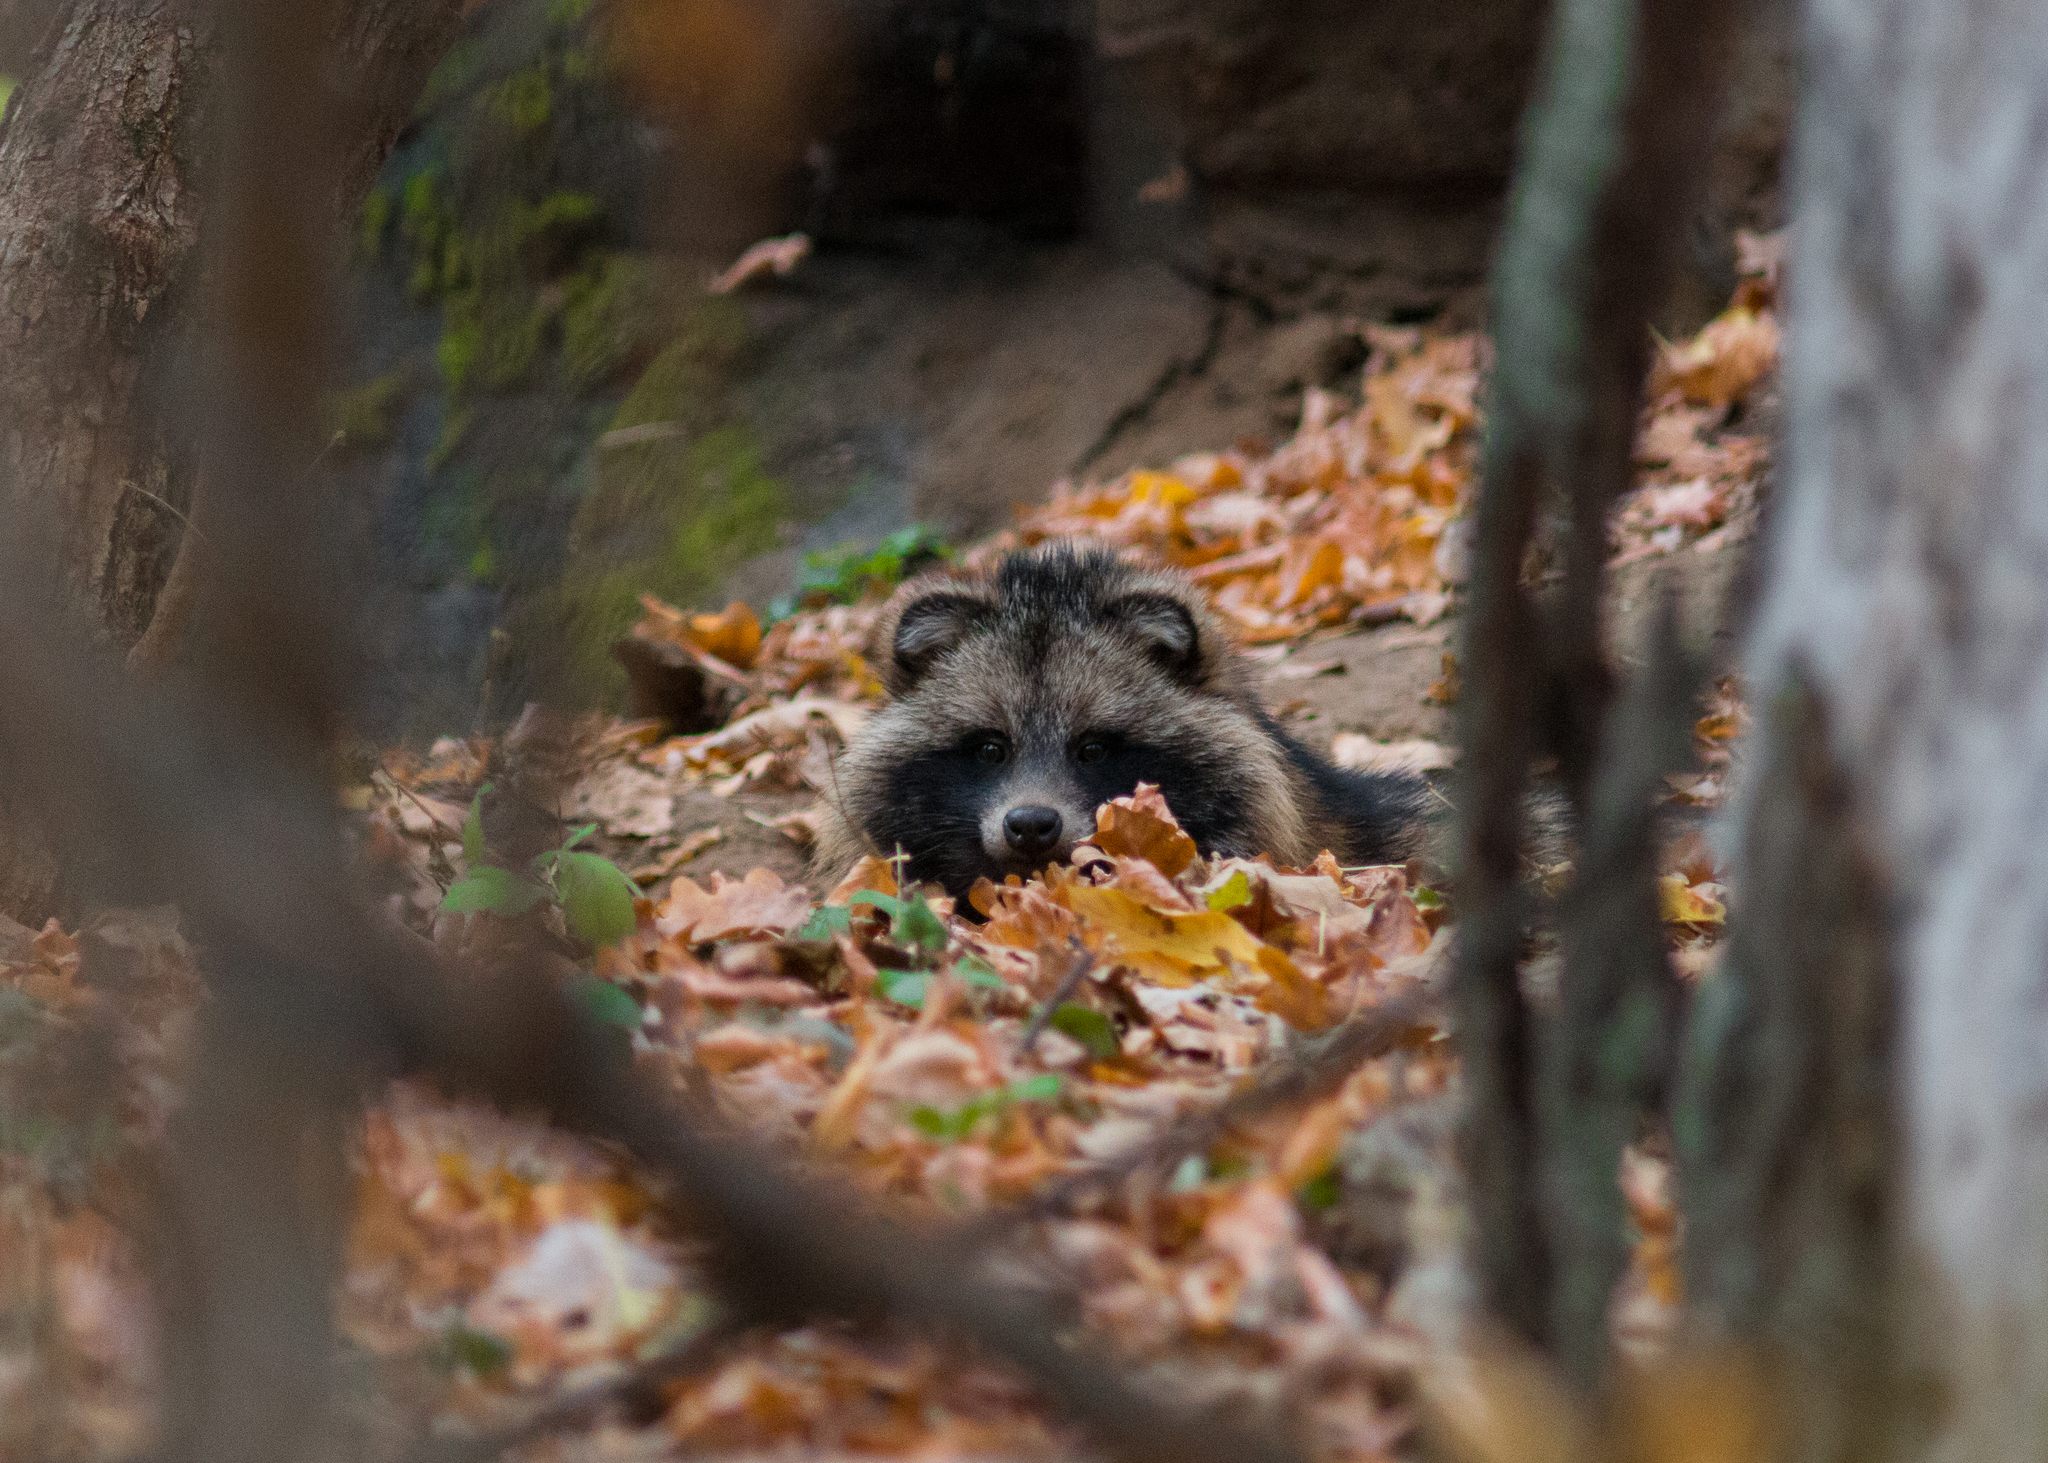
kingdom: Animalia
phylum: Chordata
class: Mammalia
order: Carnivora
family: Canidae
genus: Nyctereutes
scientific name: Nyctereutes procyonoides
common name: Raccoon dog
